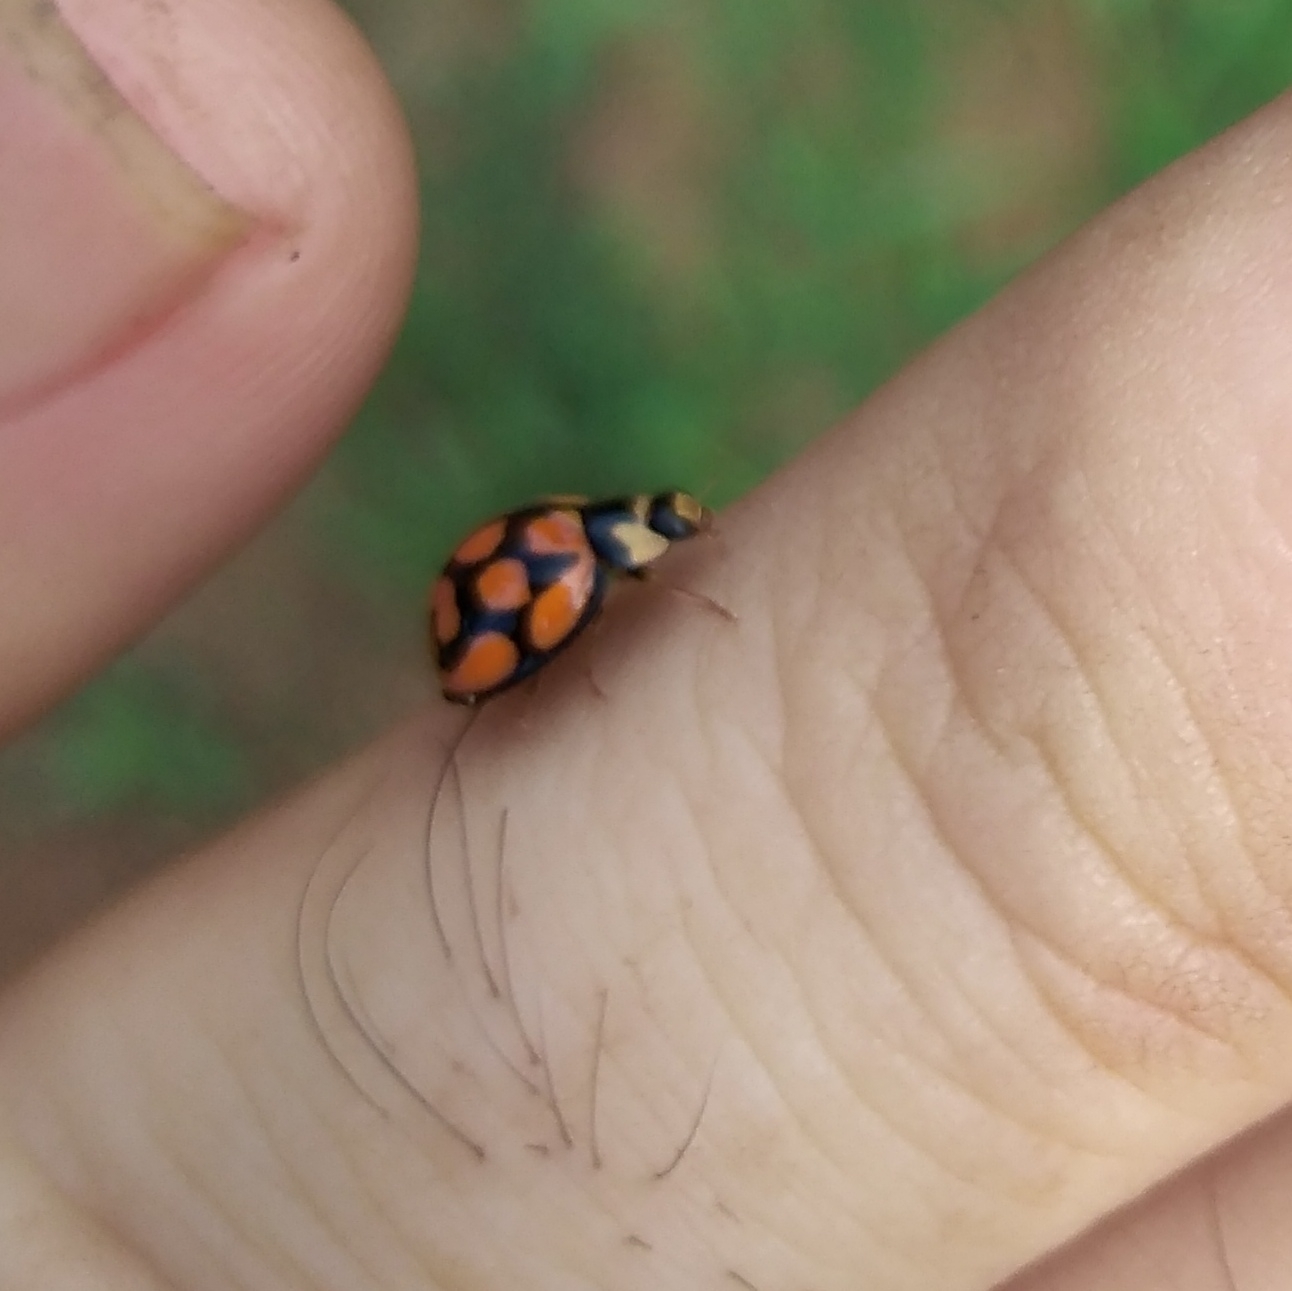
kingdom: Animalia
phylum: Arthropoda
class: Insecta
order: Coleoptera
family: Coccinellidae
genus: Cheilomenes
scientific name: Cheilomenes lunata
